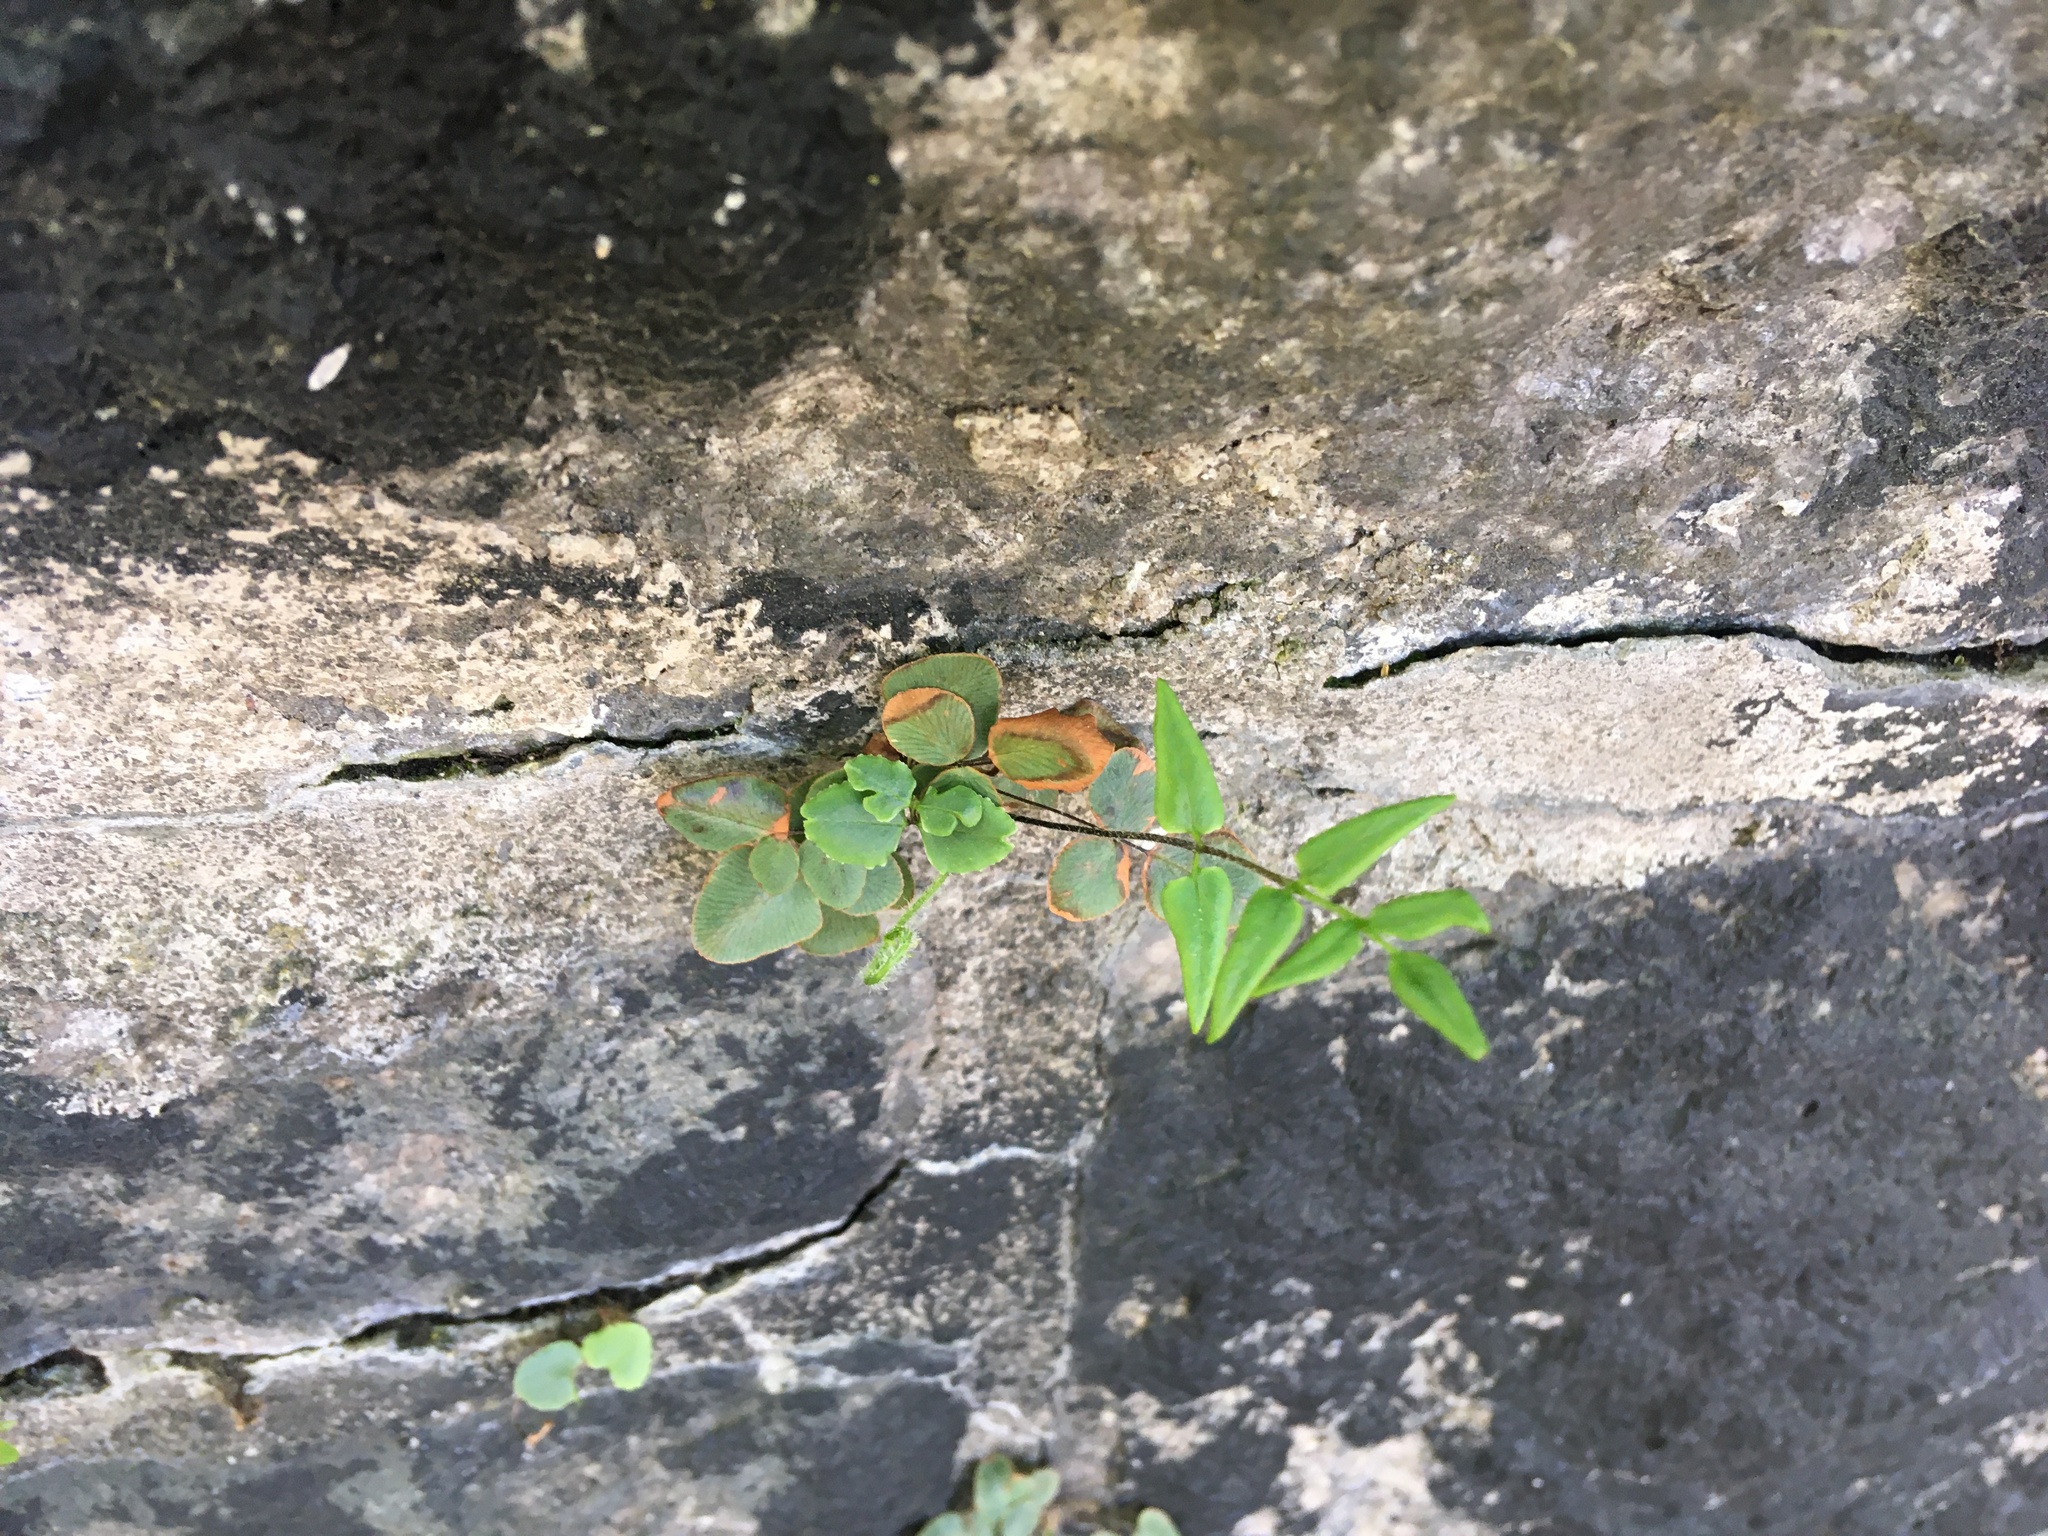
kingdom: Plantae
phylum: Tracheophyta
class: Polypodiopsida
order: Polypodiales
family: Pteridaceae
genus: Pellaea
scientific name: Pellaea atropurpurea
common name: Hairy cliffbrake
